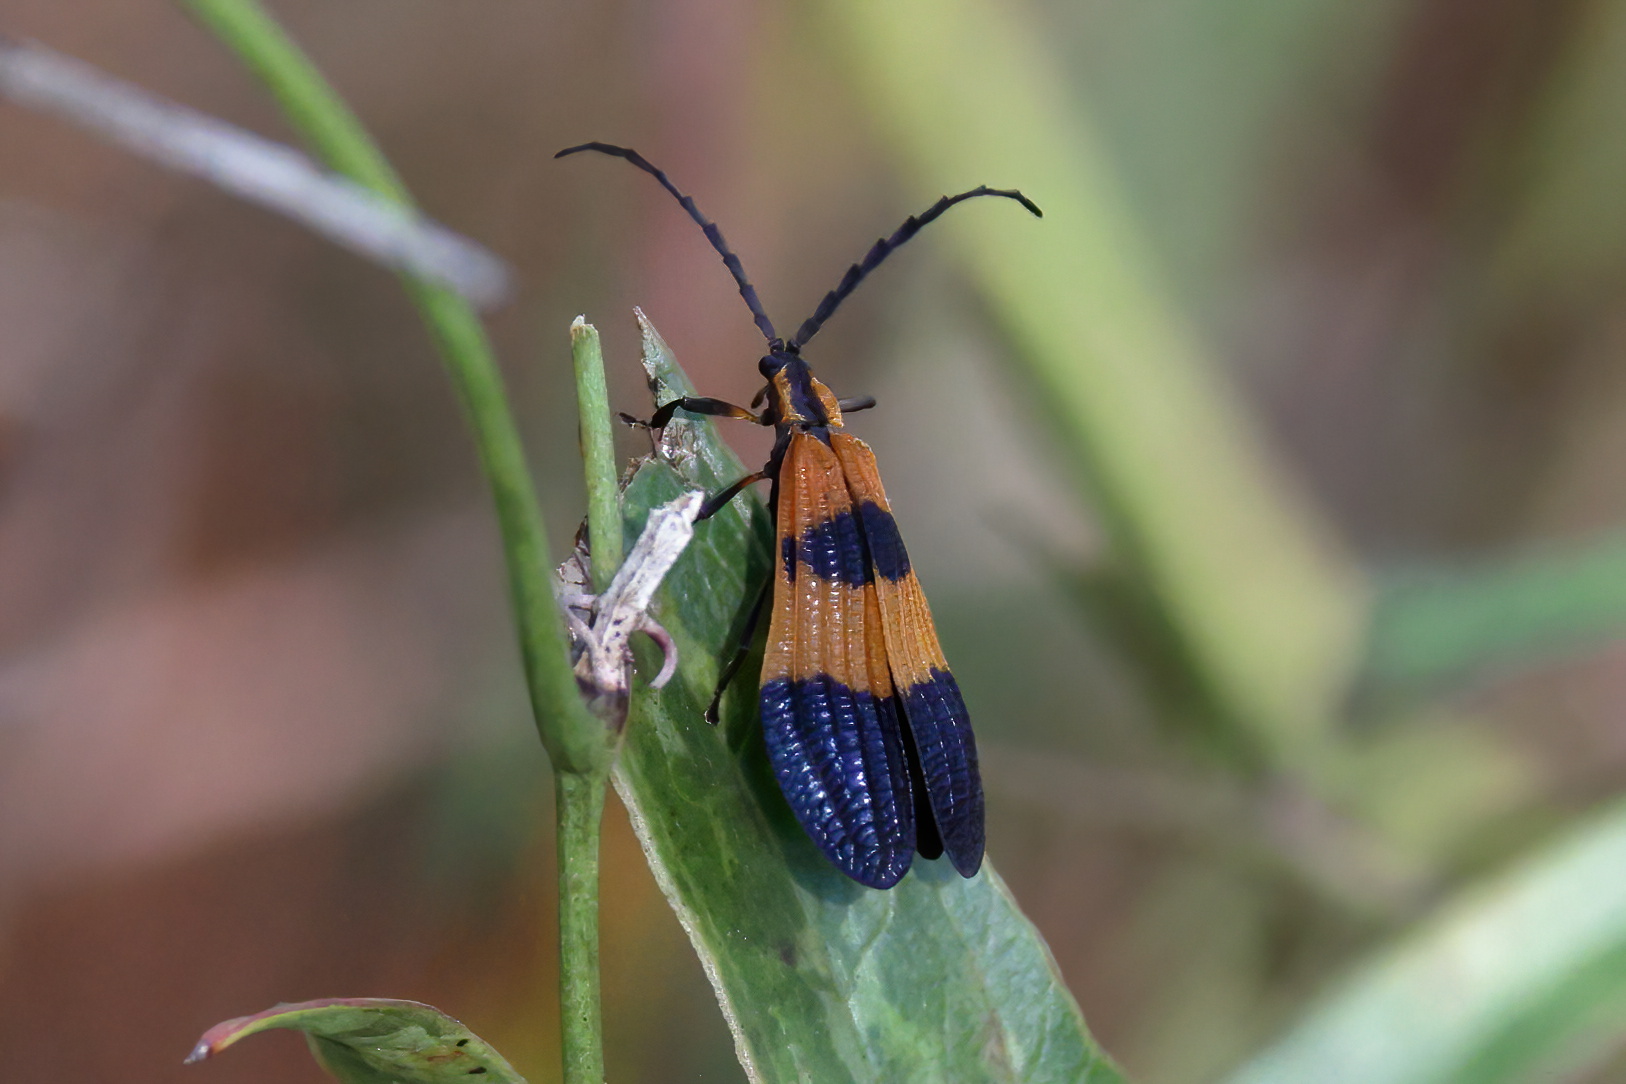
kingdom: Animalia
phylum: Arthropoda
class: Insecta
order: Coleoptera
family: Lycidae
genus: Calopteron
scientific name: Calopteron terminale
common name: End band net-winged beetle
